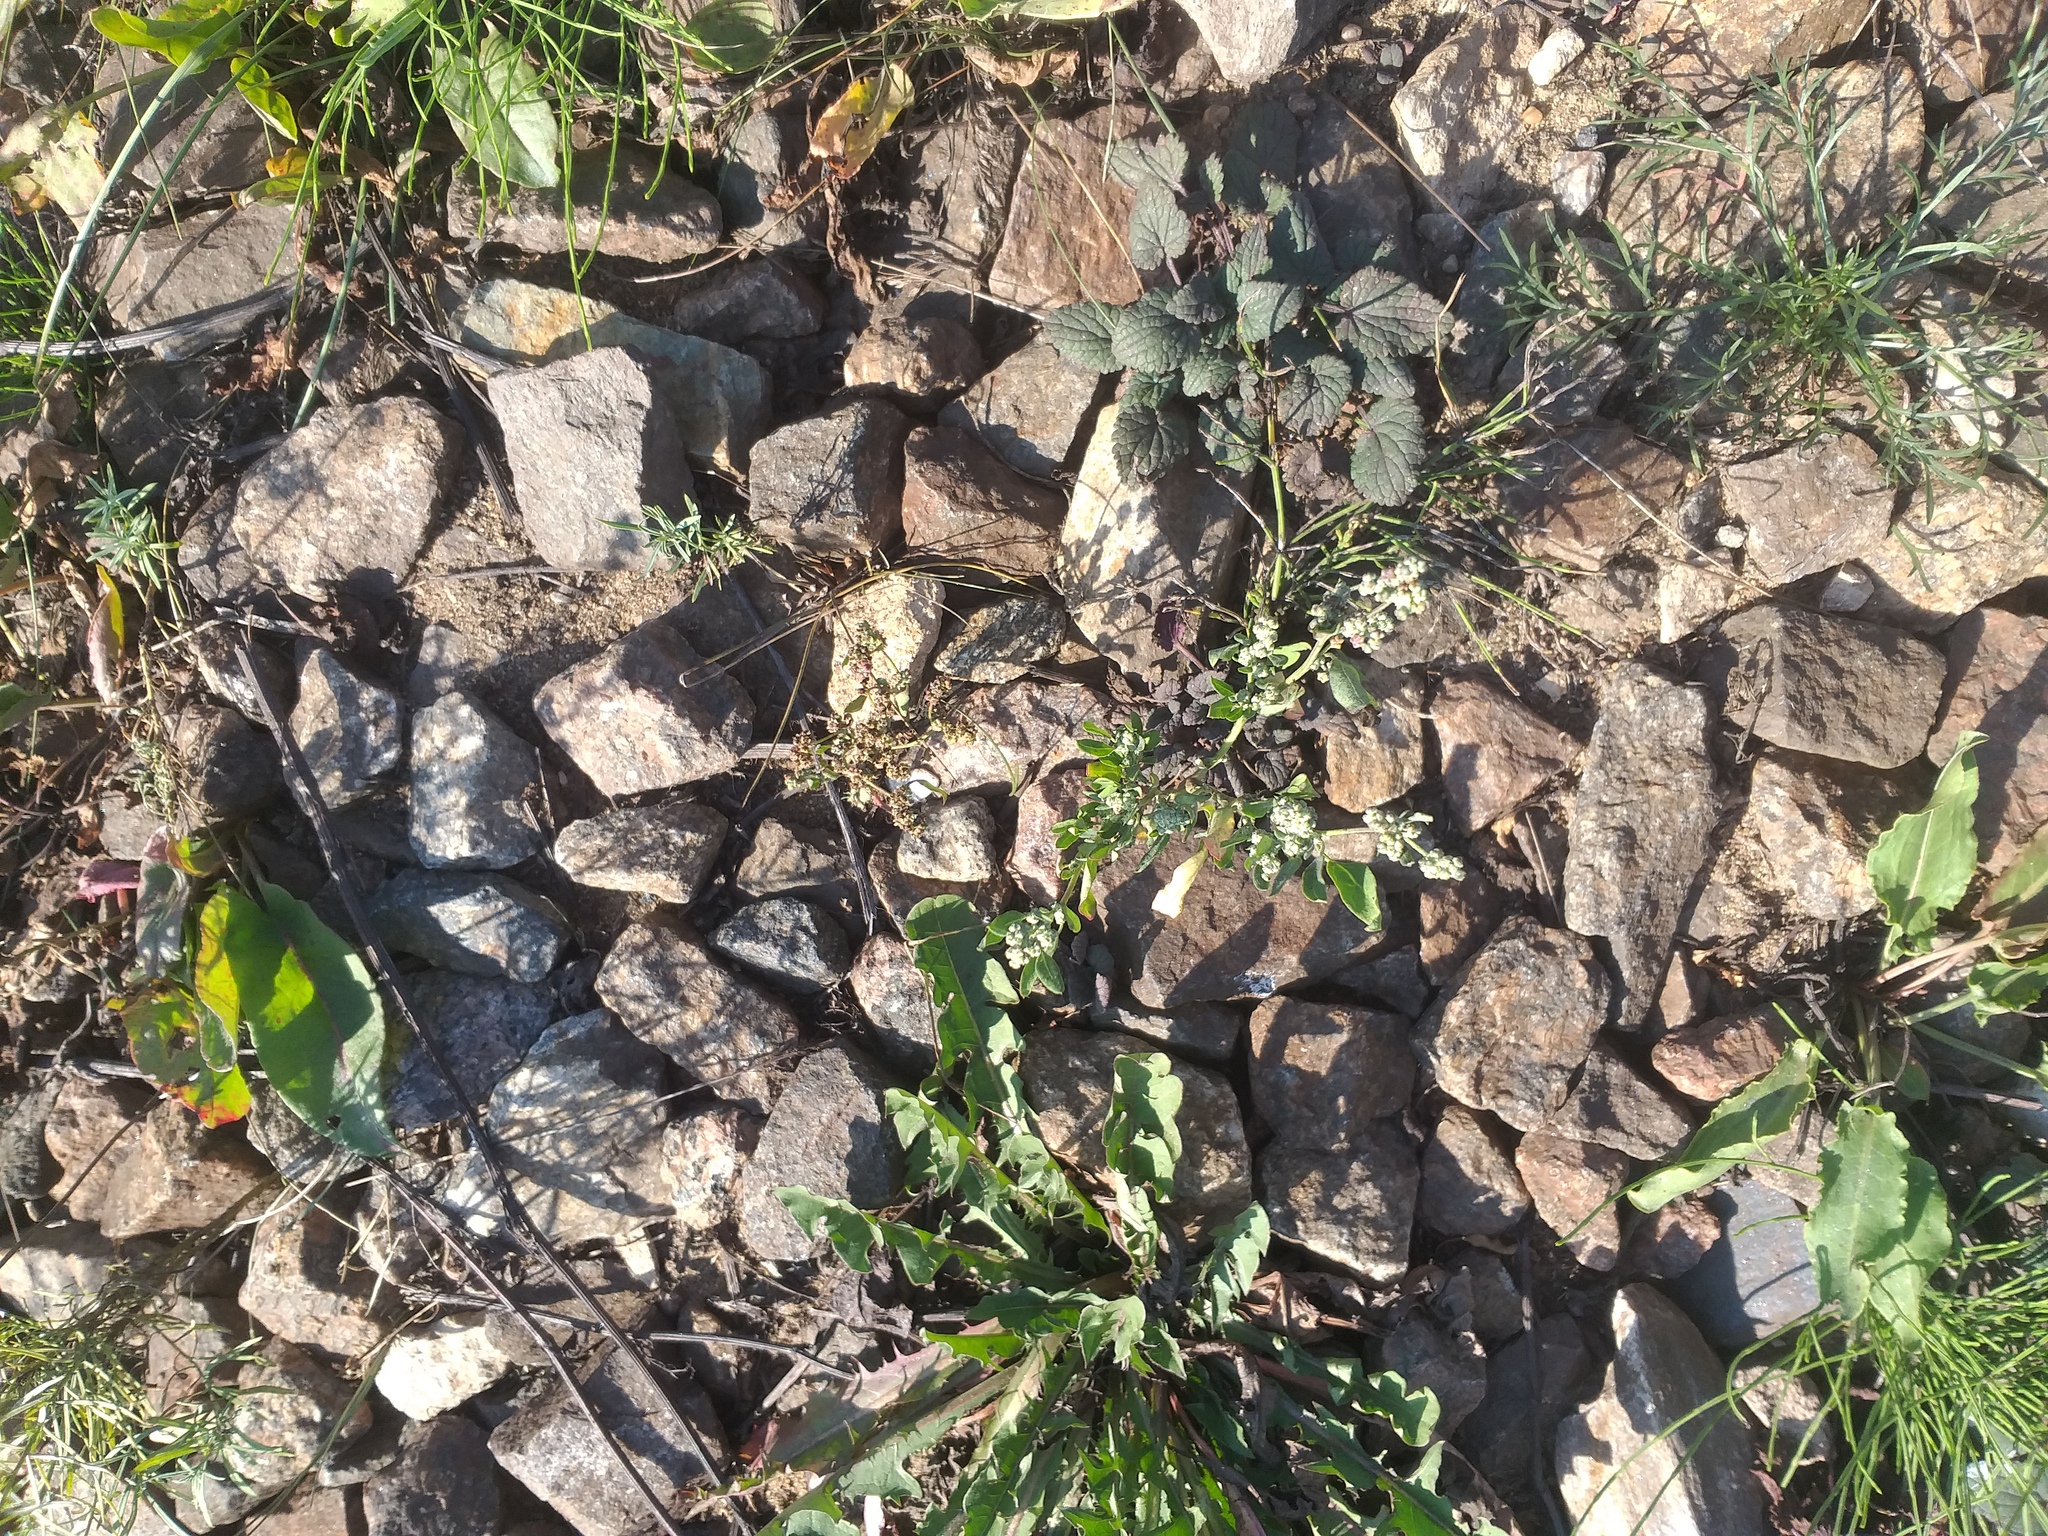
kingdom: Plantae
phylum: Tracheophyta
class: Magnoliopsida
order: Caryophyllales
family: Amaranthaceae
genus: Chenopodium
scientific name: Chenopodium album
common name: Fat-hen
